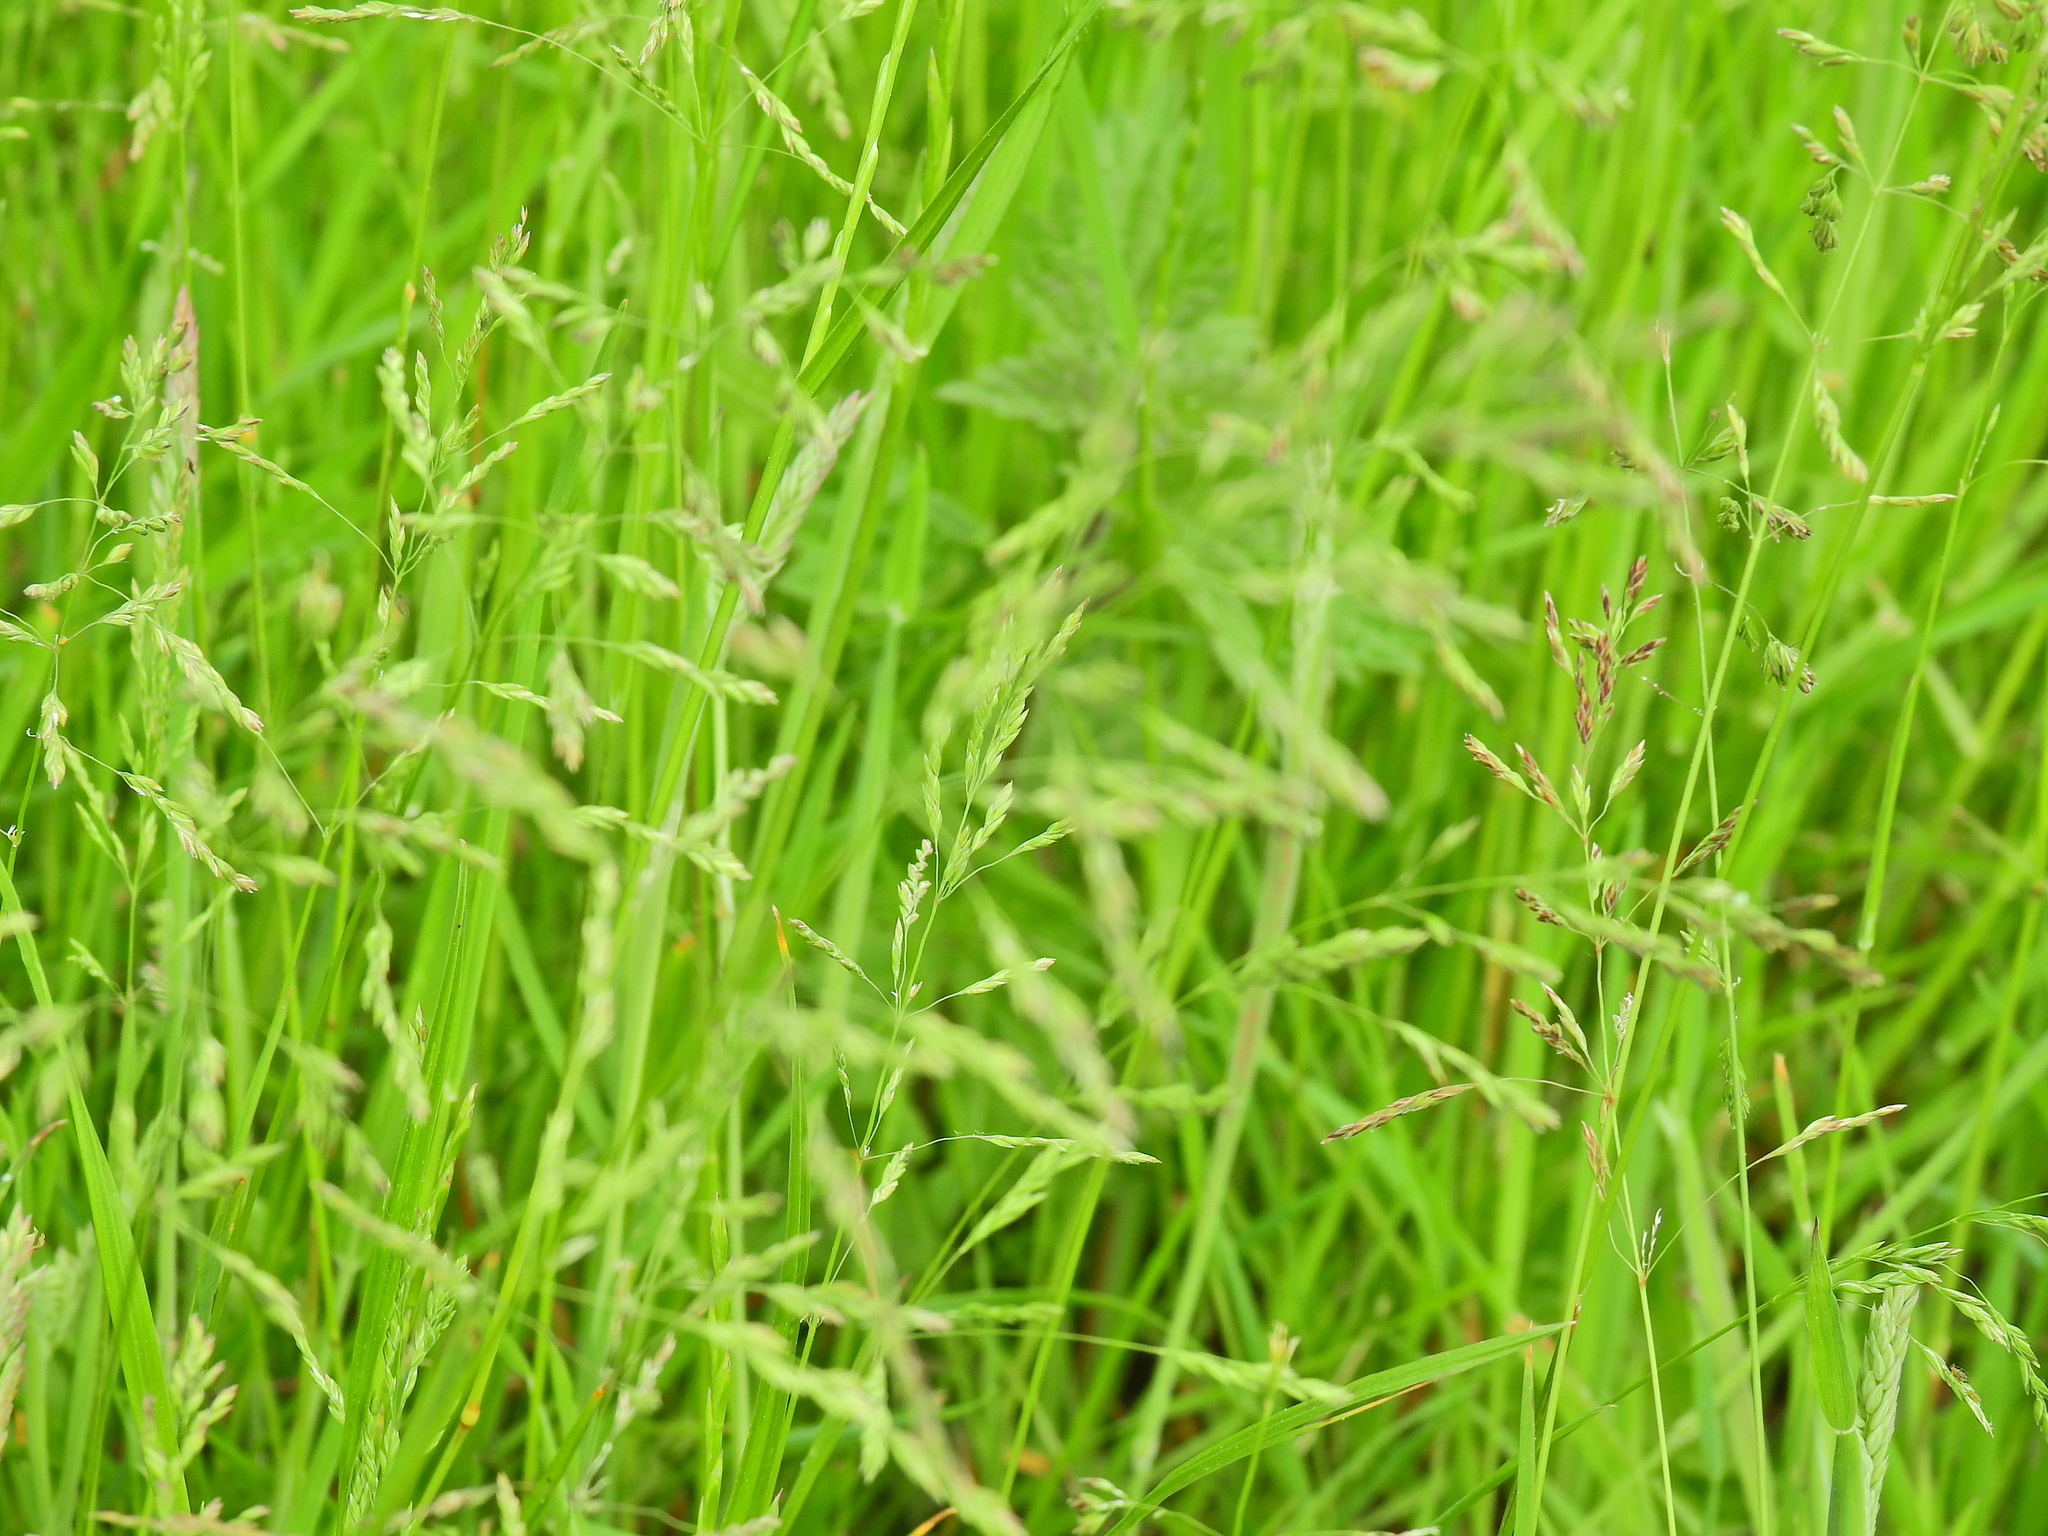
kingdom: Plantae
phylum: Tracheophyta
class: Liliopsida
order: Poales
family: Poaceae
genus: Poa
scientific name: Poa annua
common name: Annual bluegrass
